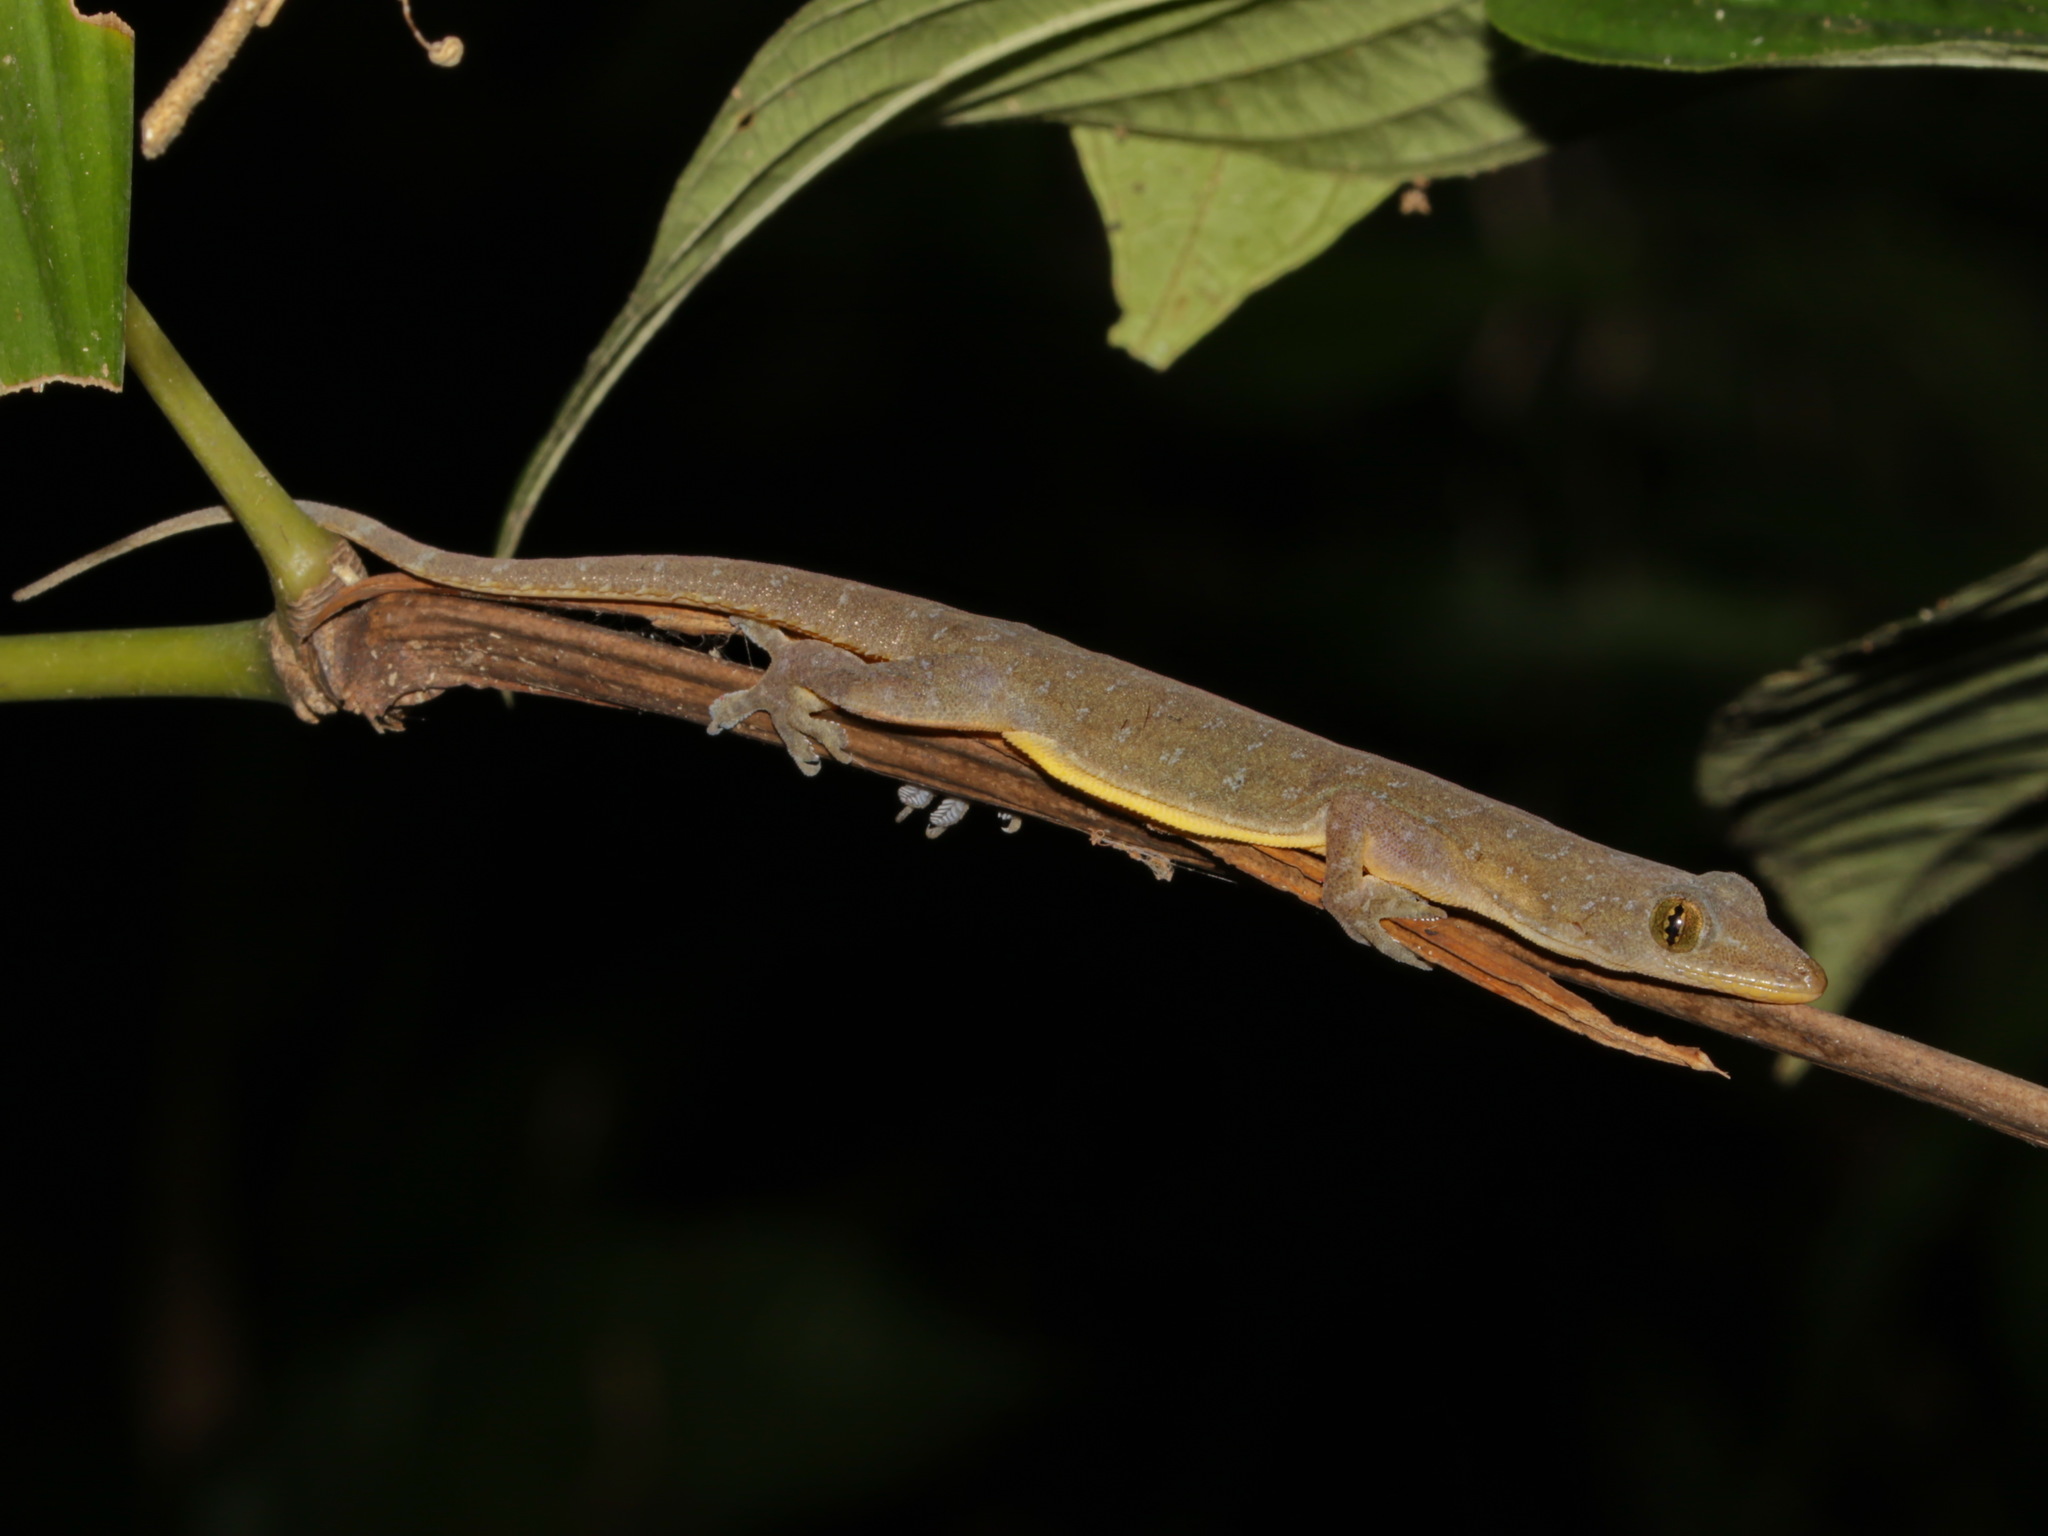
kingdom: Animalia
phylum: Chordata
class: Squamata
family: Gekkonidae
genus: Hemidactylus
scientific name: Hemidactylus garnotii
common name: Indo-pacific gecko
